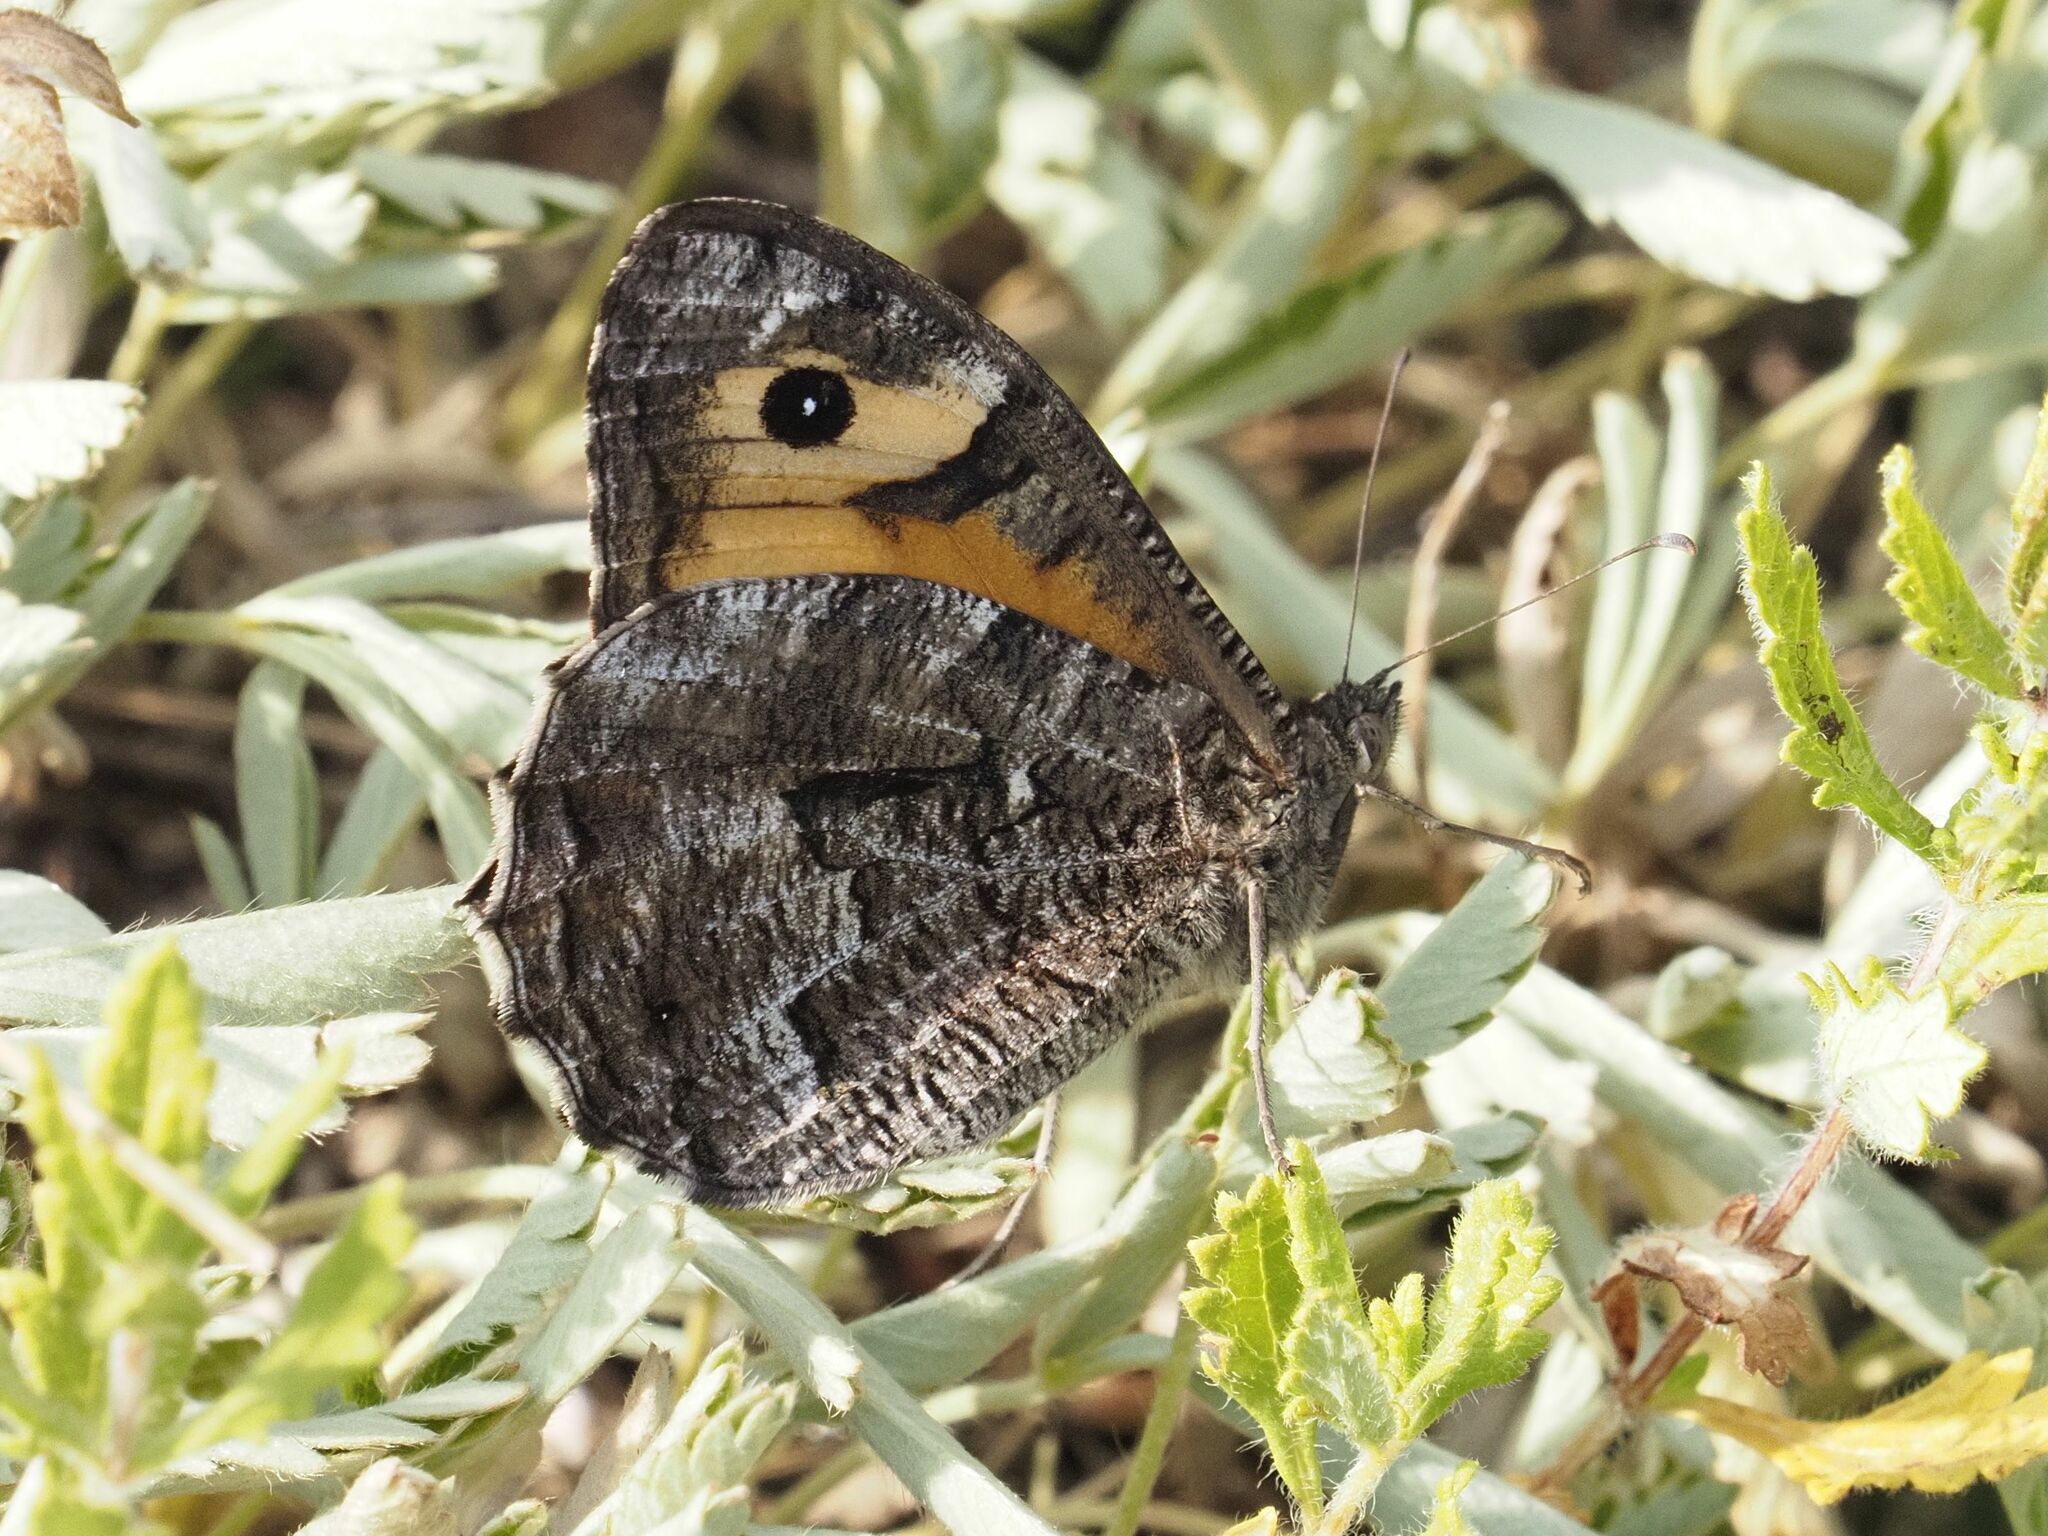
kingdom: Animalia
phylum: Arthropoda
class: Insecta
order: Lepidoptera
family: Nymphalidae
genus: Hipparchia
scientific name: Hipparchia semele
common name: Grayling
